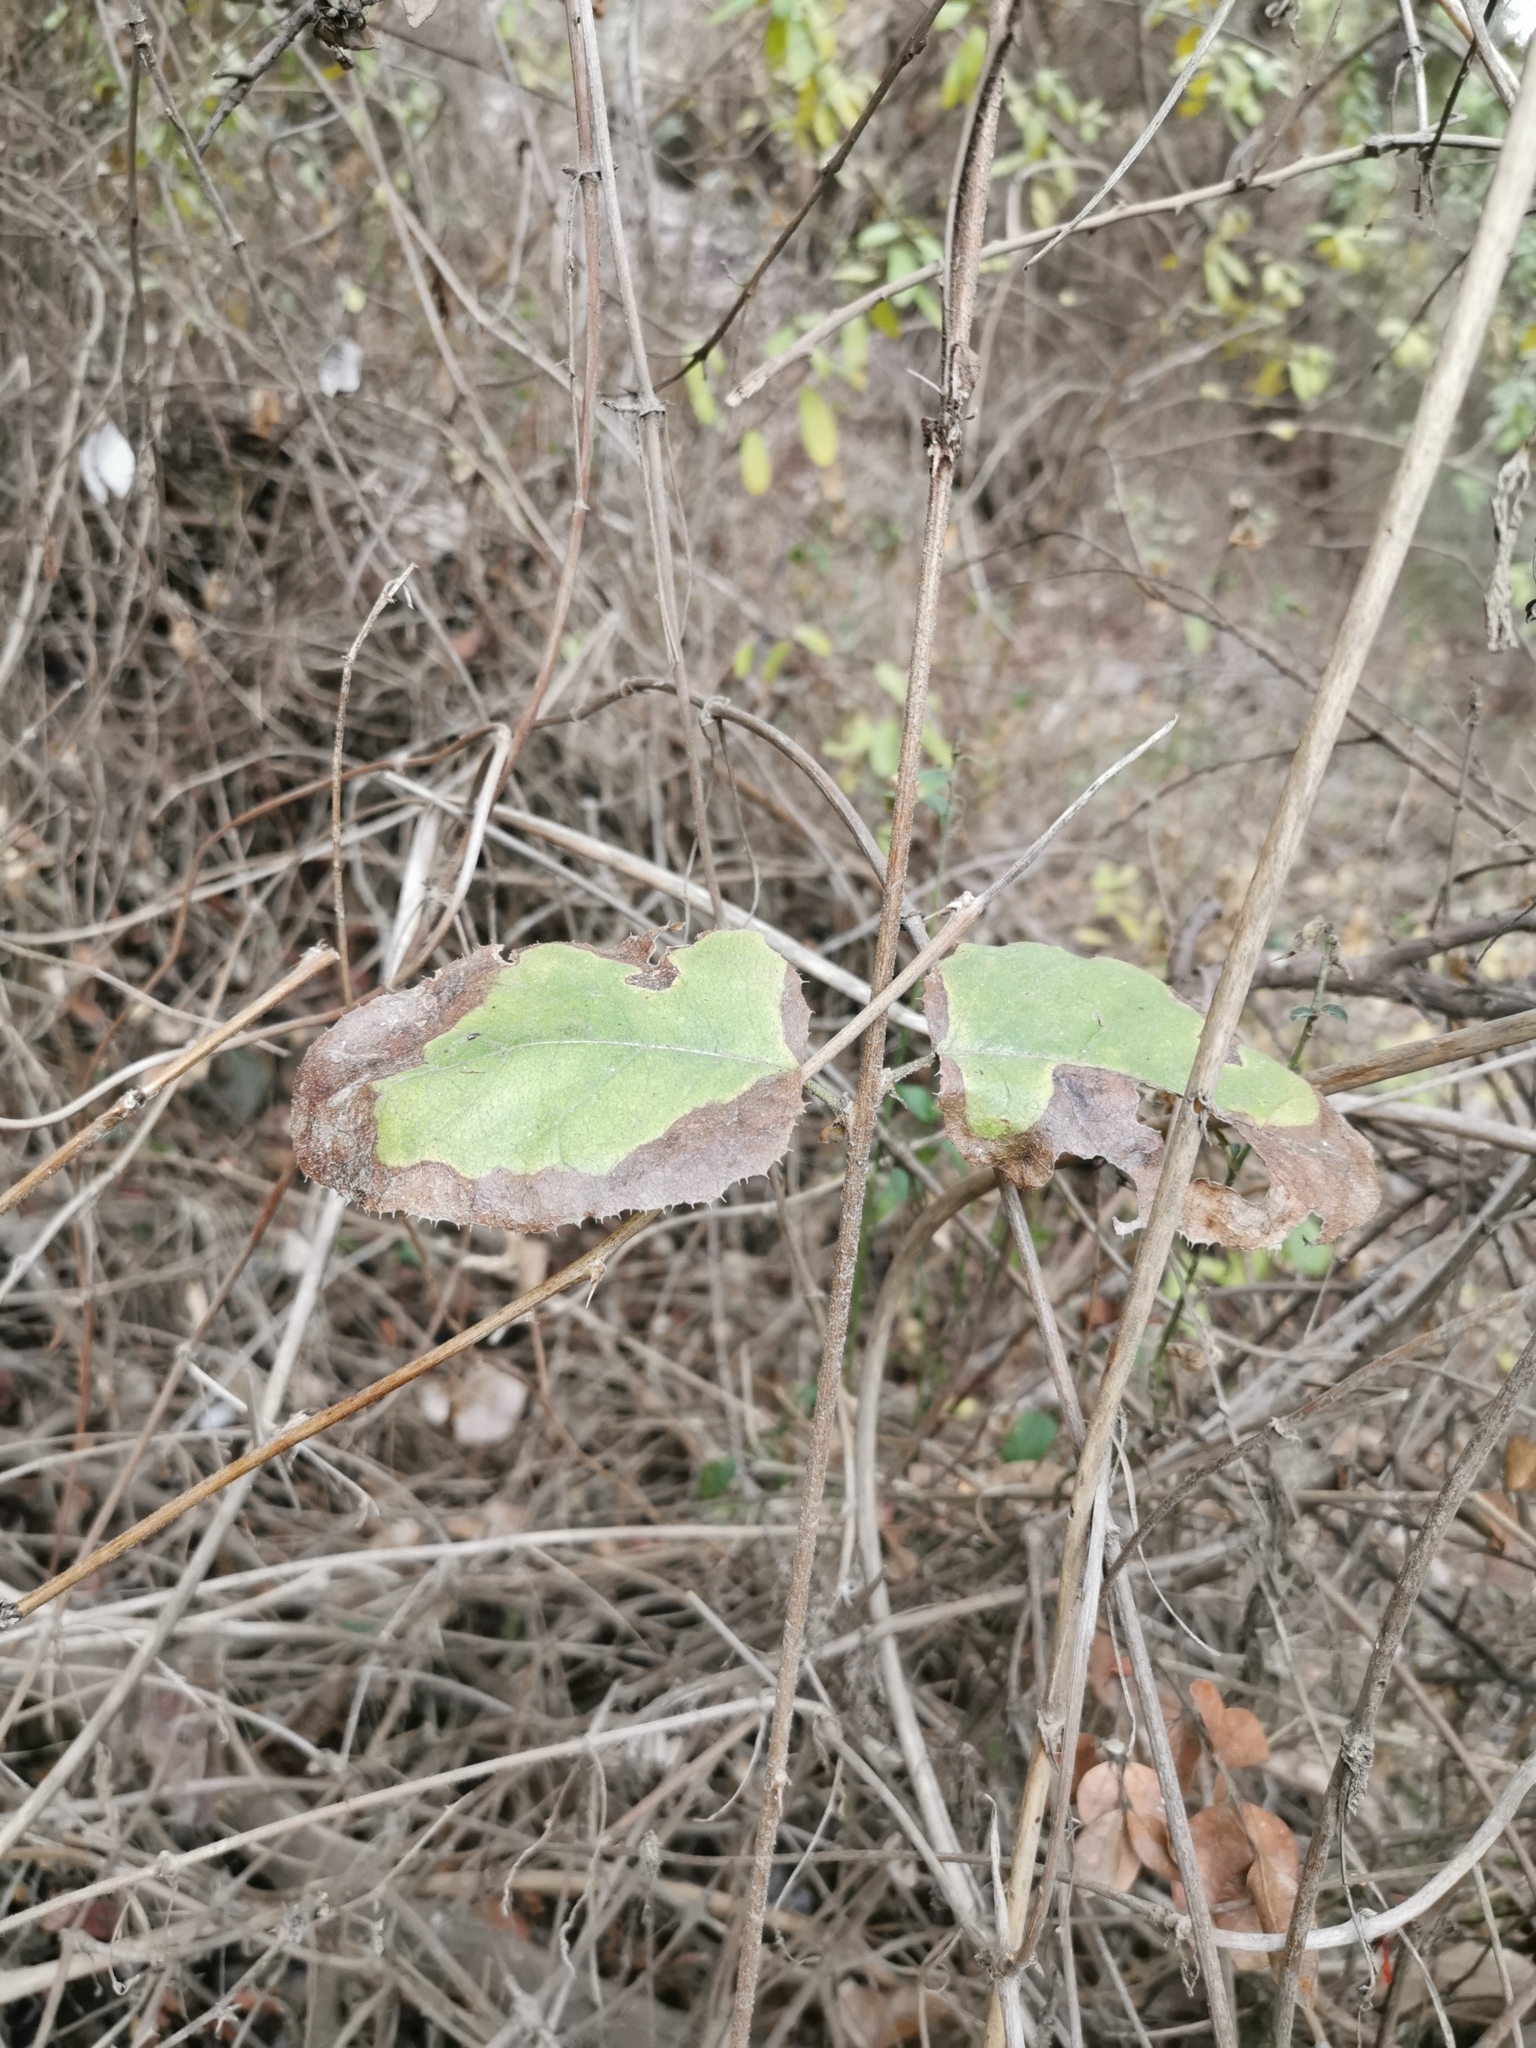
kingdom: Plantae
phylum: Tracheophyta
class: Magnoliopsida
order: Asterales
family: Asteraceae
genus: Proustia
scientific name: Proustia pyrifolia
